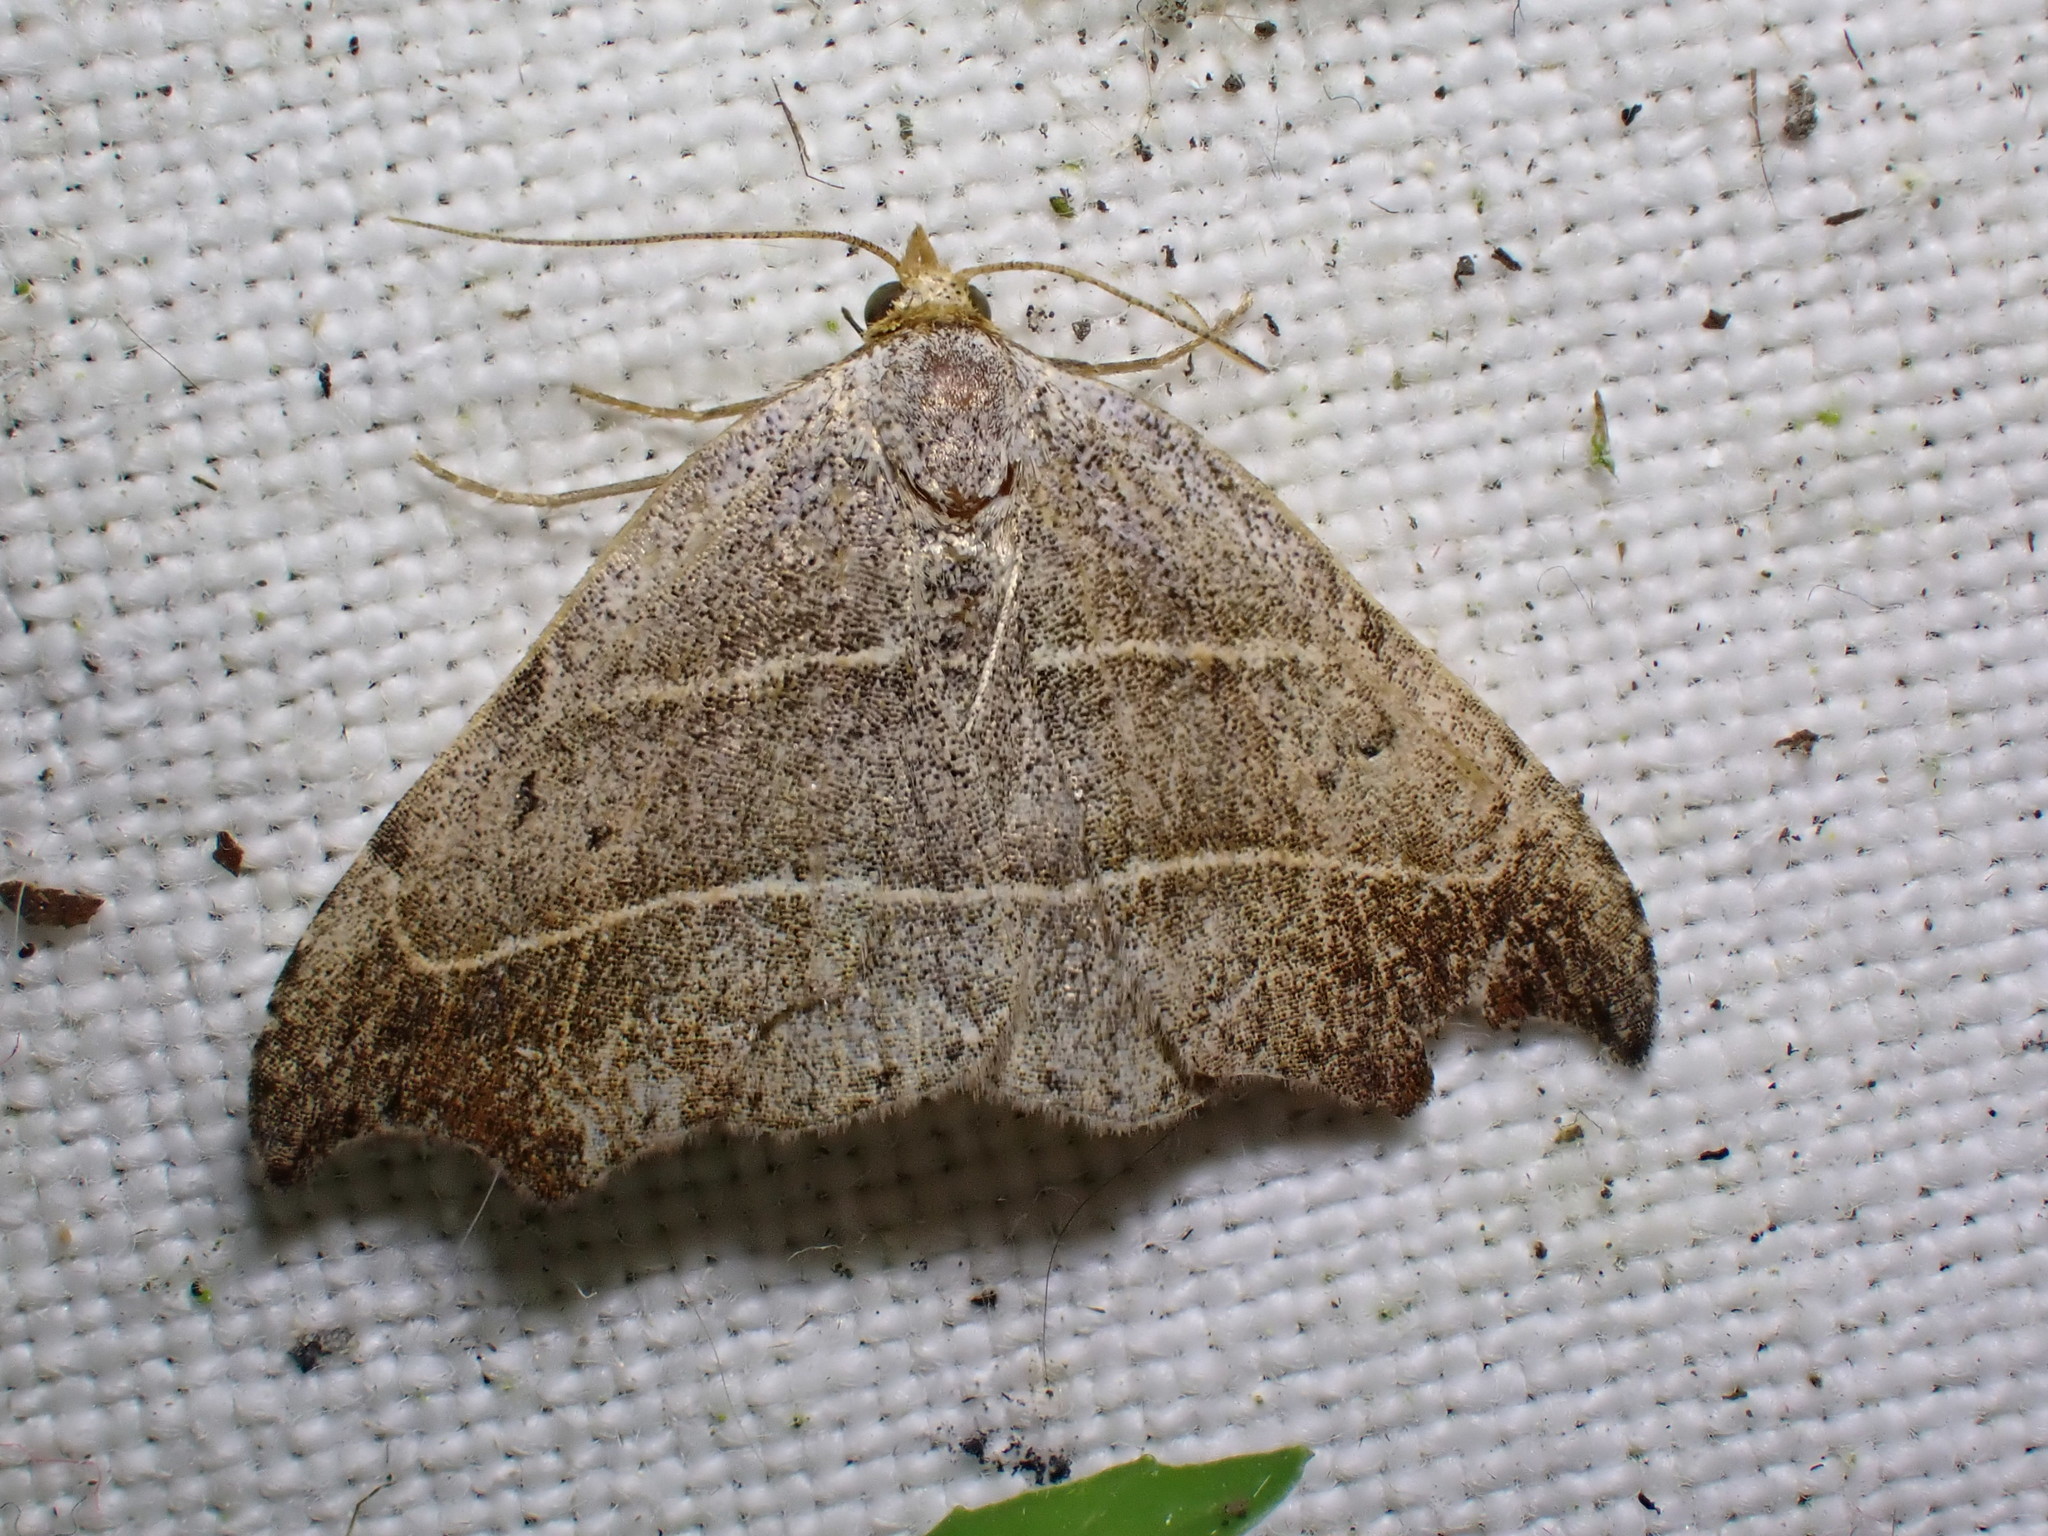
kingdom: Animalia
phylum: Arthropoda
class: Insecta
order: Lepidoptera
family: Erebidae
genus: Laspeyria
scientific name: Laspeyria flexula
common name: Beautiful hook-tip
